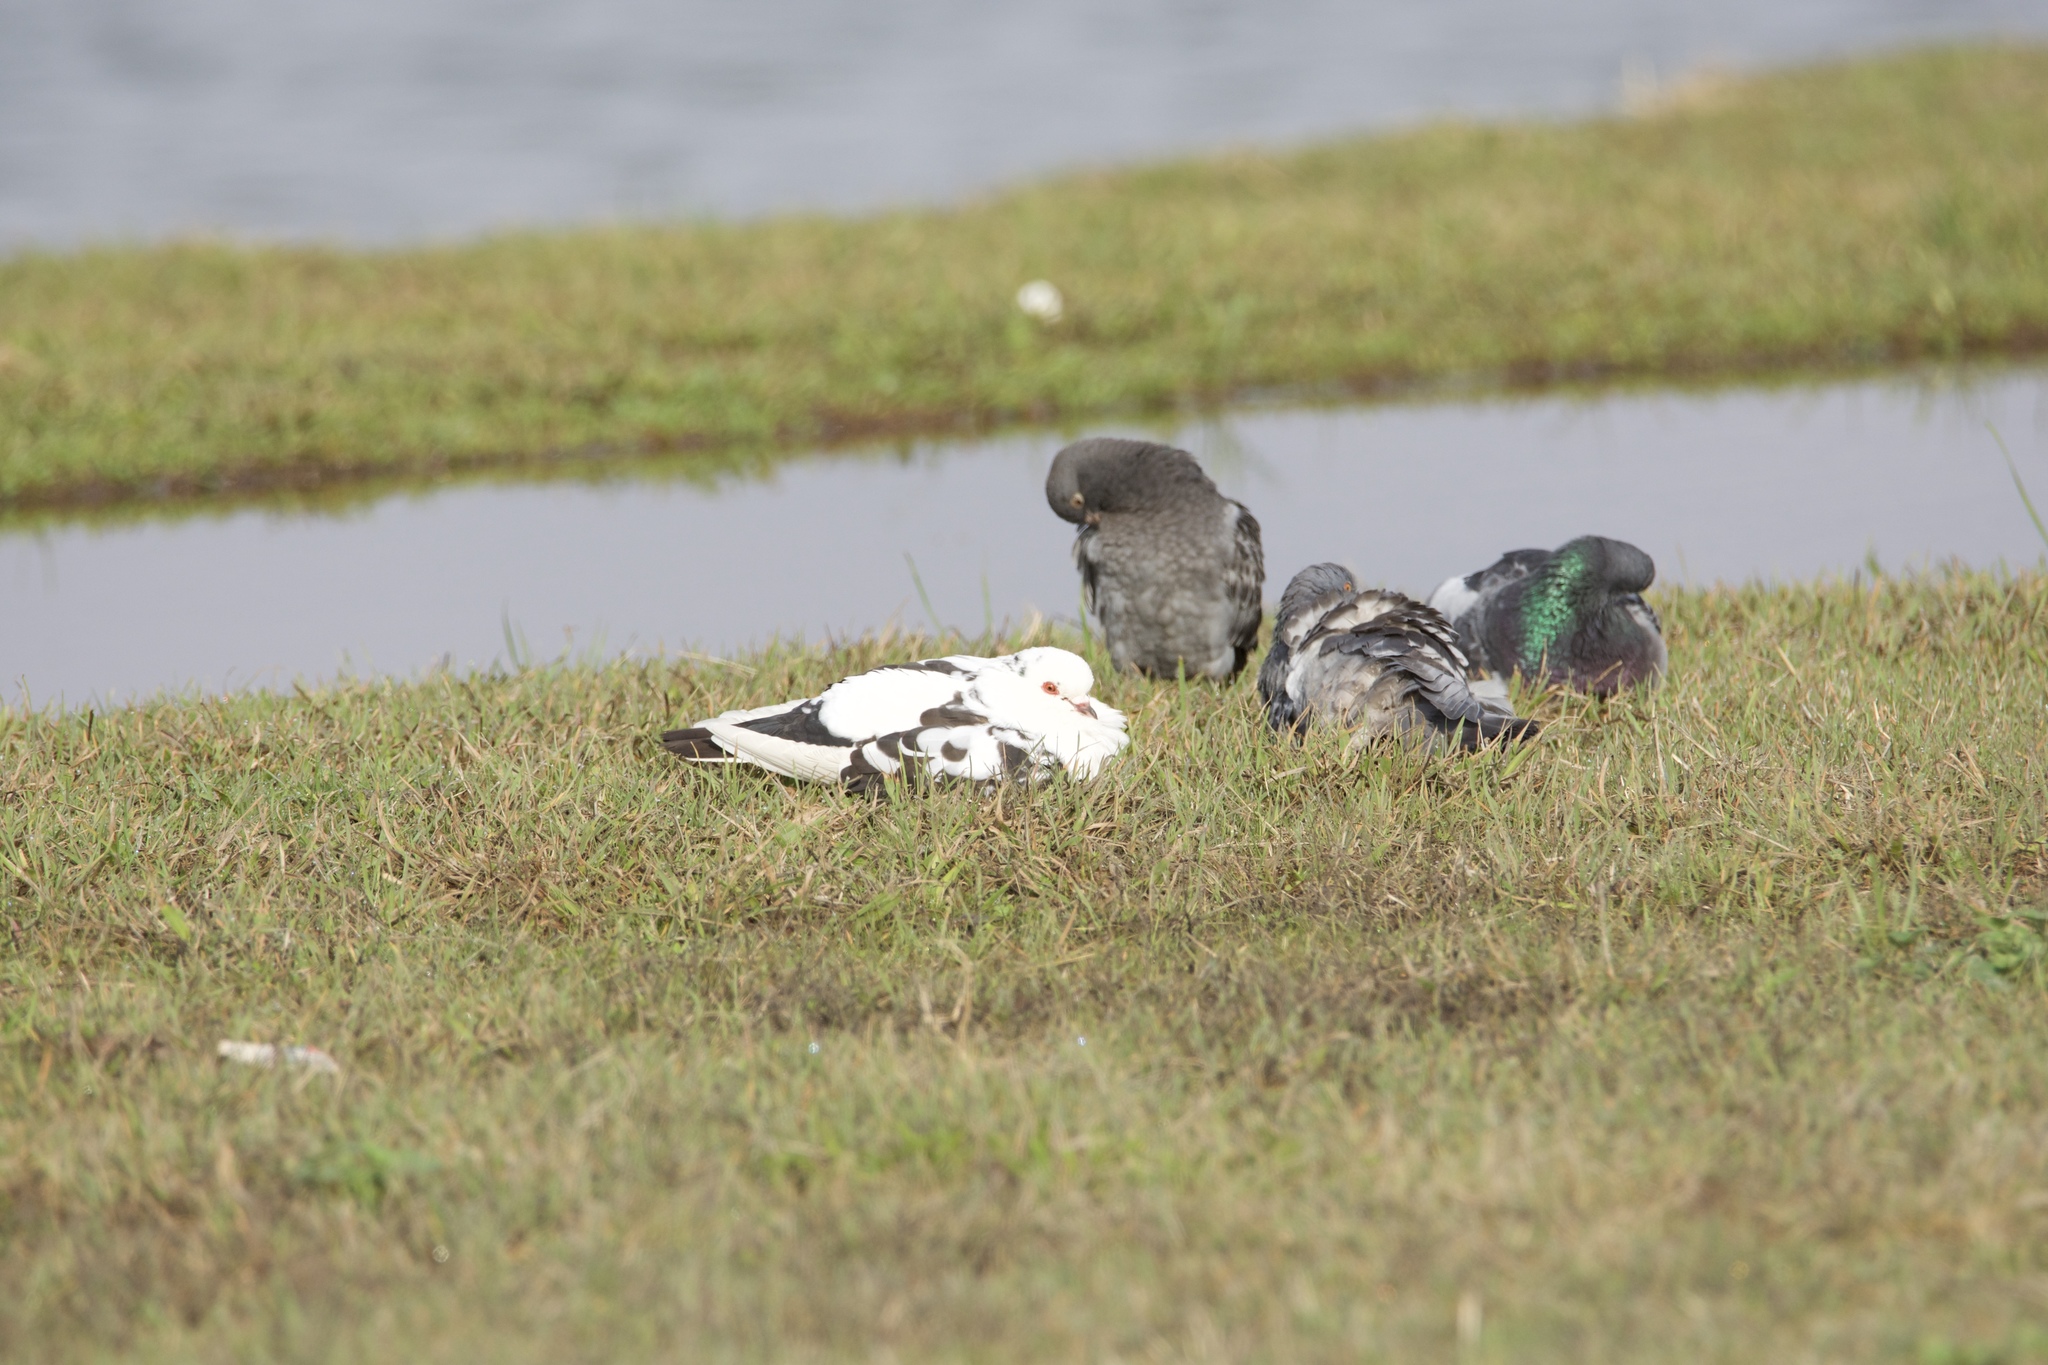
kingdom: Animalia
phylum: Chordata
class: Aves
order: Columbiformes
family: Columbidae
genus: Columba
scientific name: Columba livia
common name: Rock pigeon
